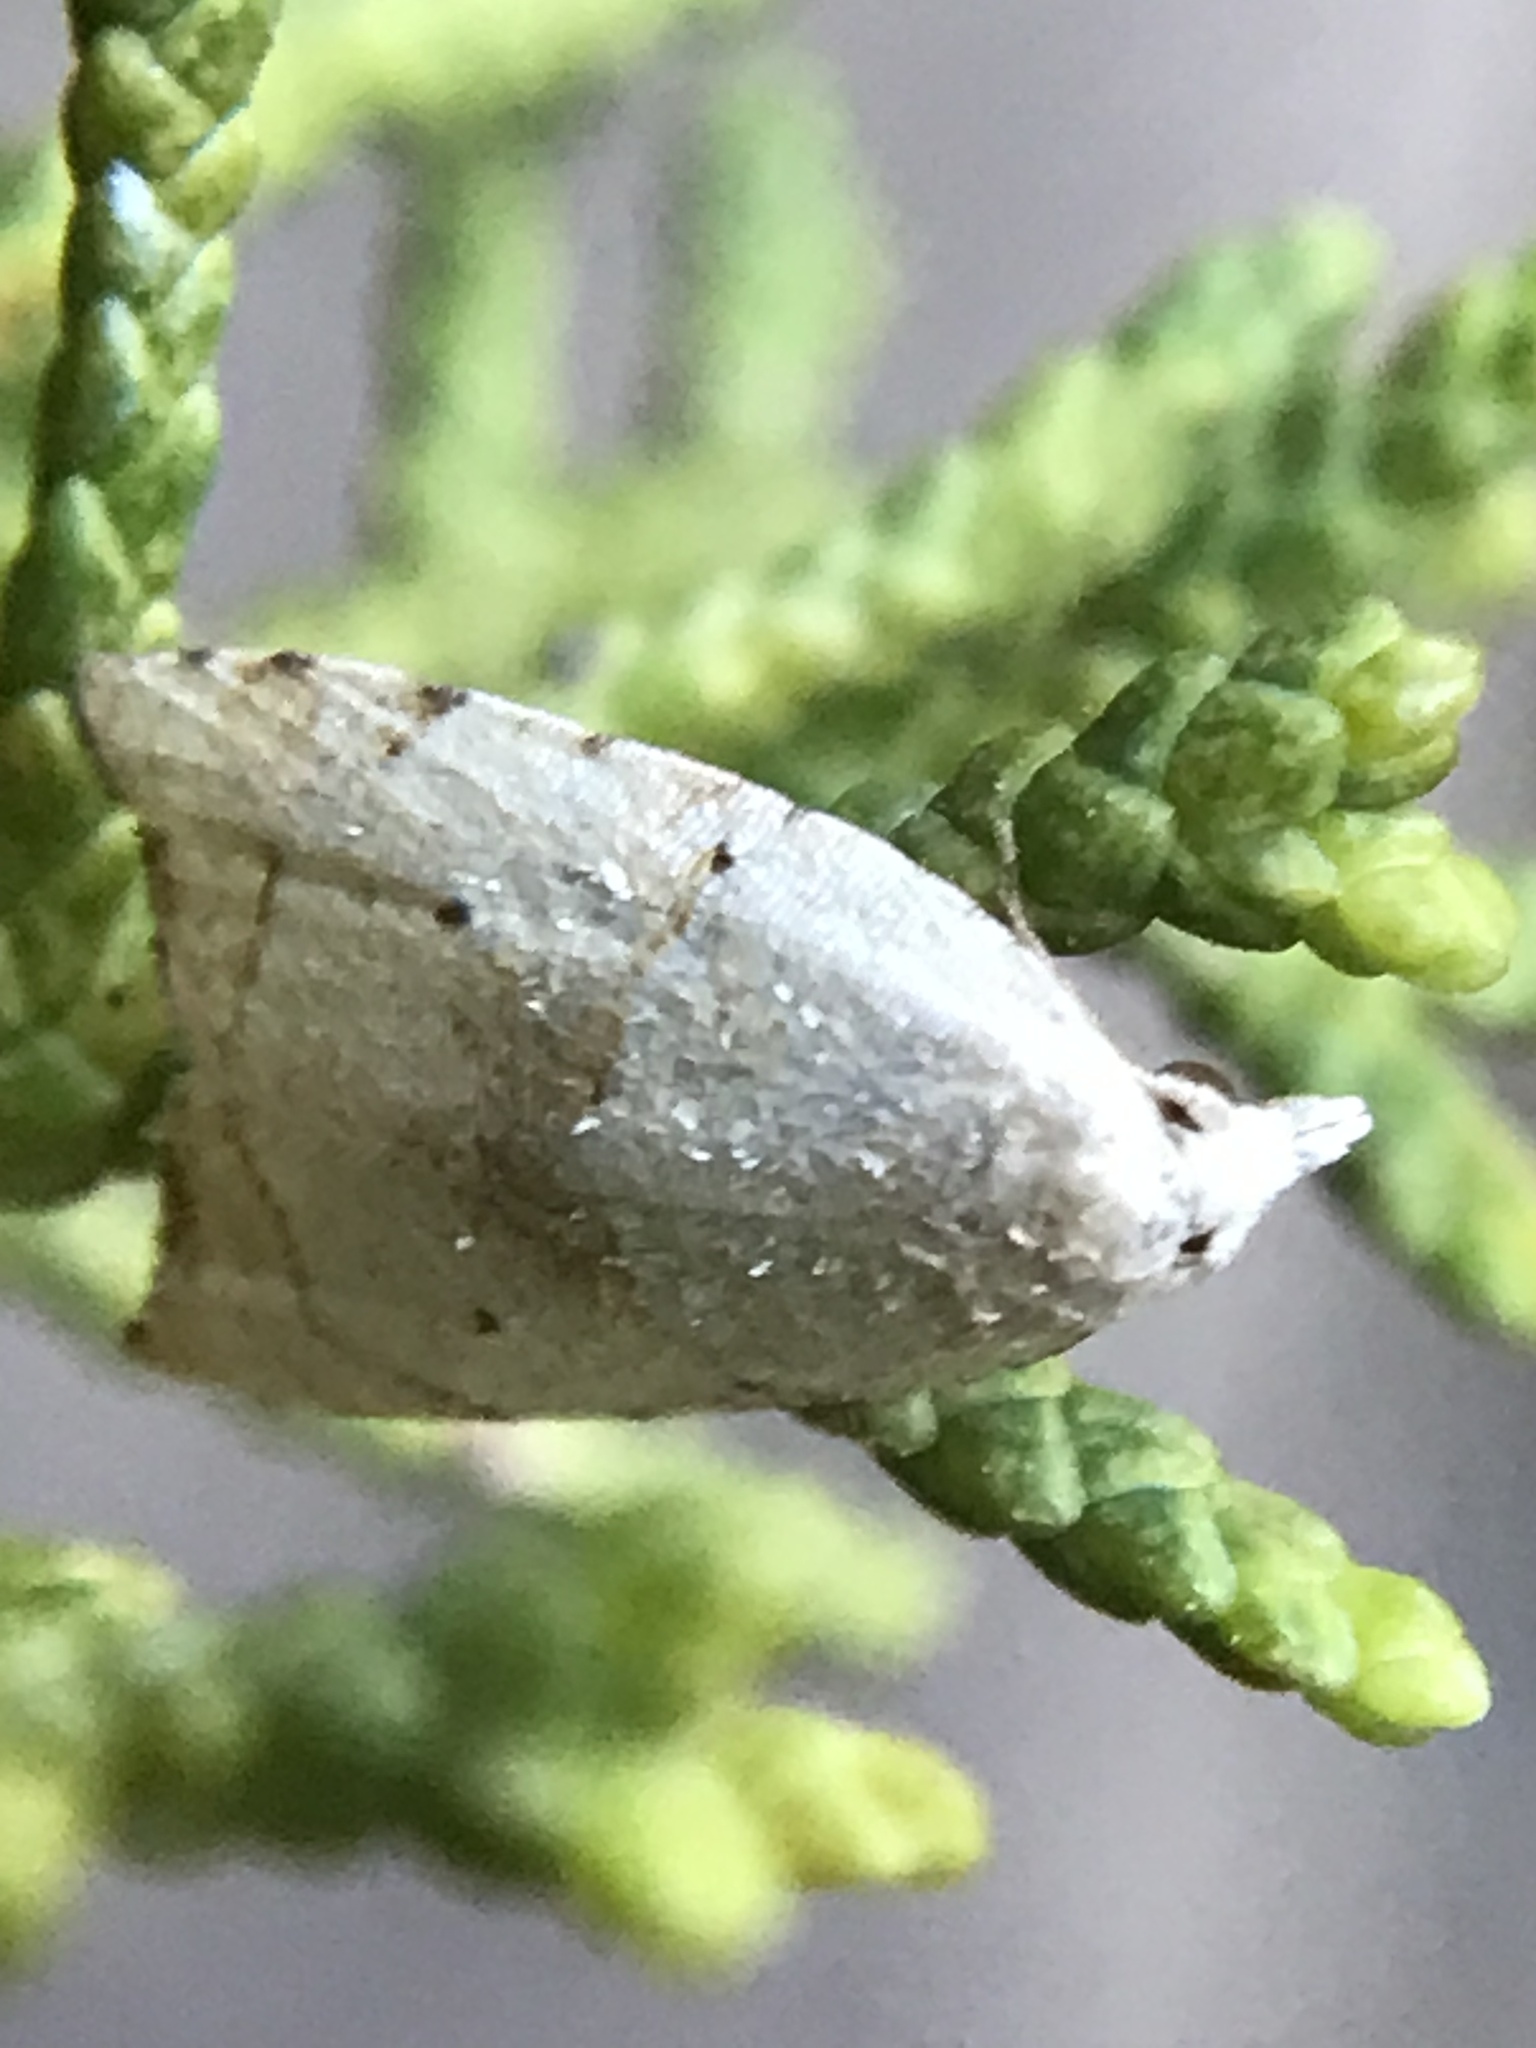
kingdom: Animalia
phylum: Arthropoda
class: Insecta
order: Lepidoptera
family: Tortricidae
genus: Coelostathma
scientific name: Coelostathma discopunctana
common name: Batman moth
